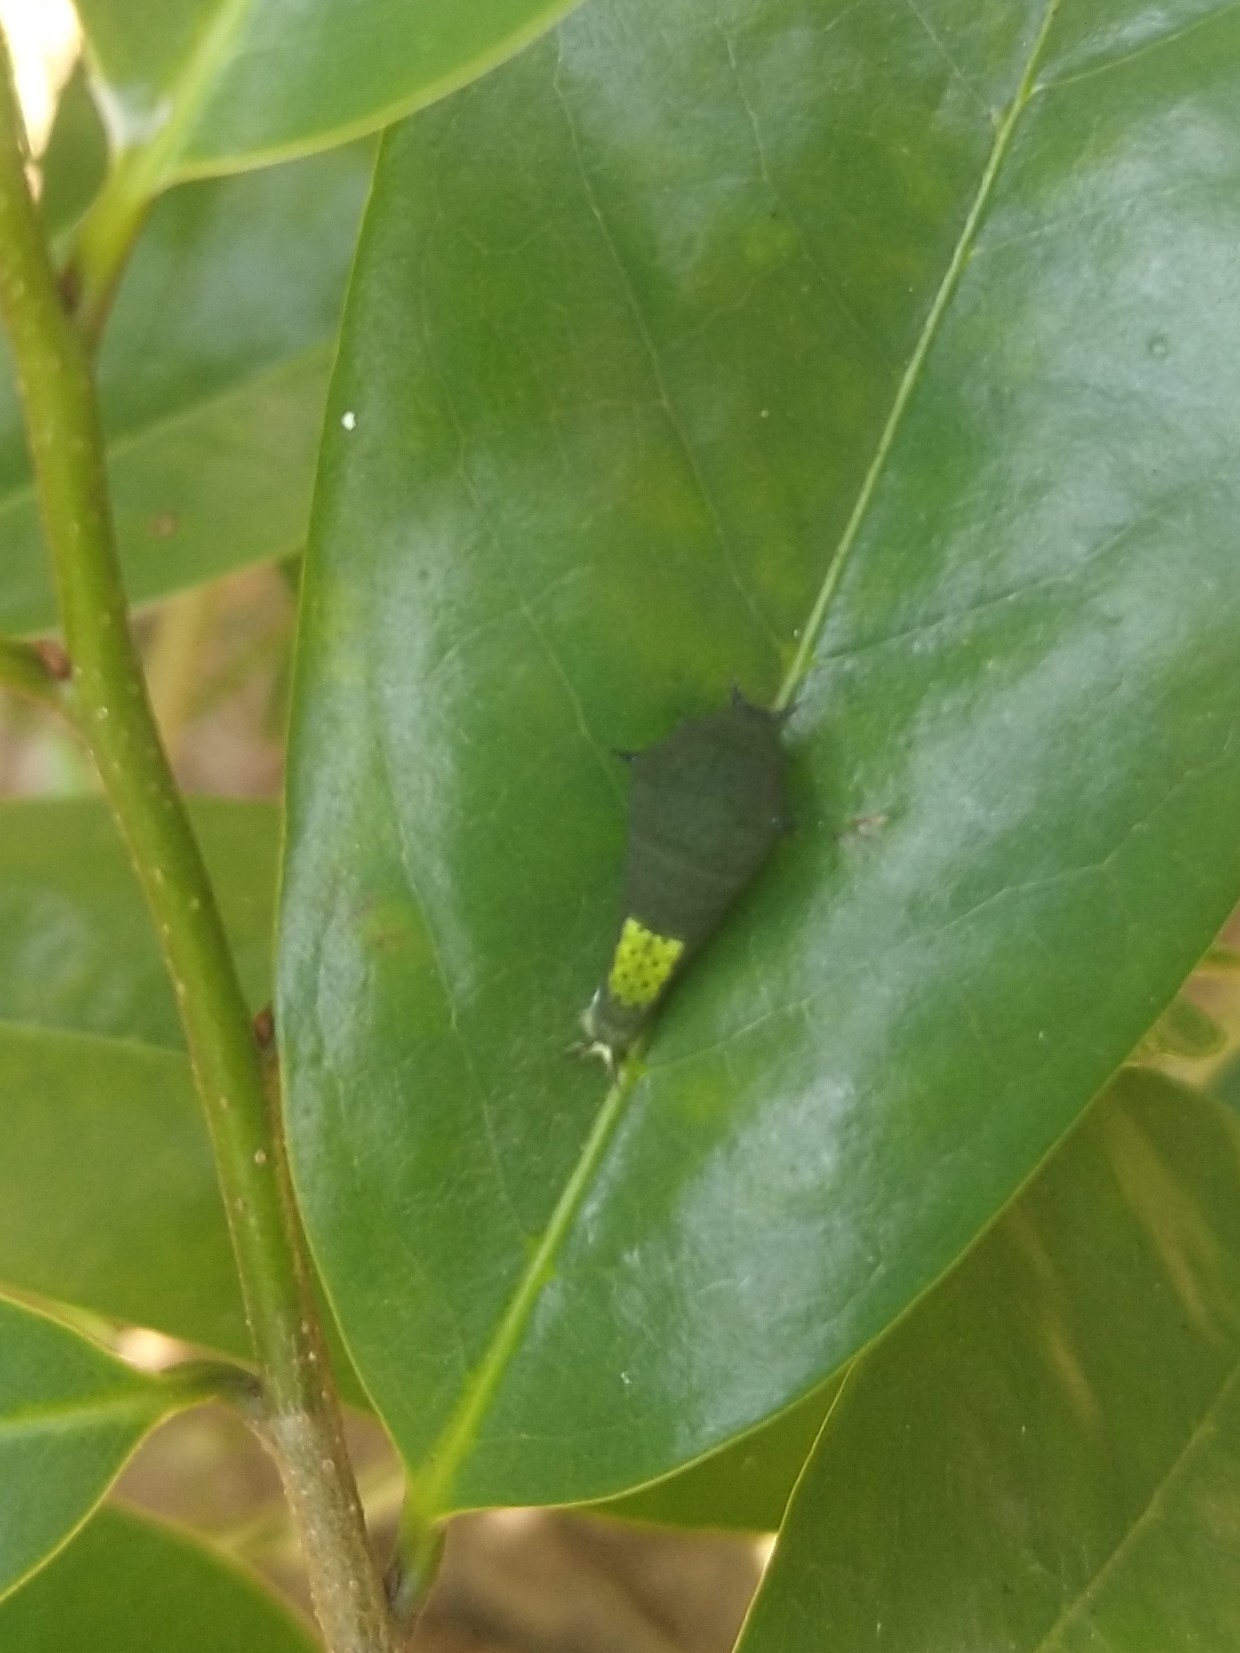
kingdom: Animalia
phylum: Arthropoda
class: Insecta
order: Lepidoptera
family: Papilionidae
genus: Graphium
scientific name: Graphium agamemnon
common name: Tailed jay
